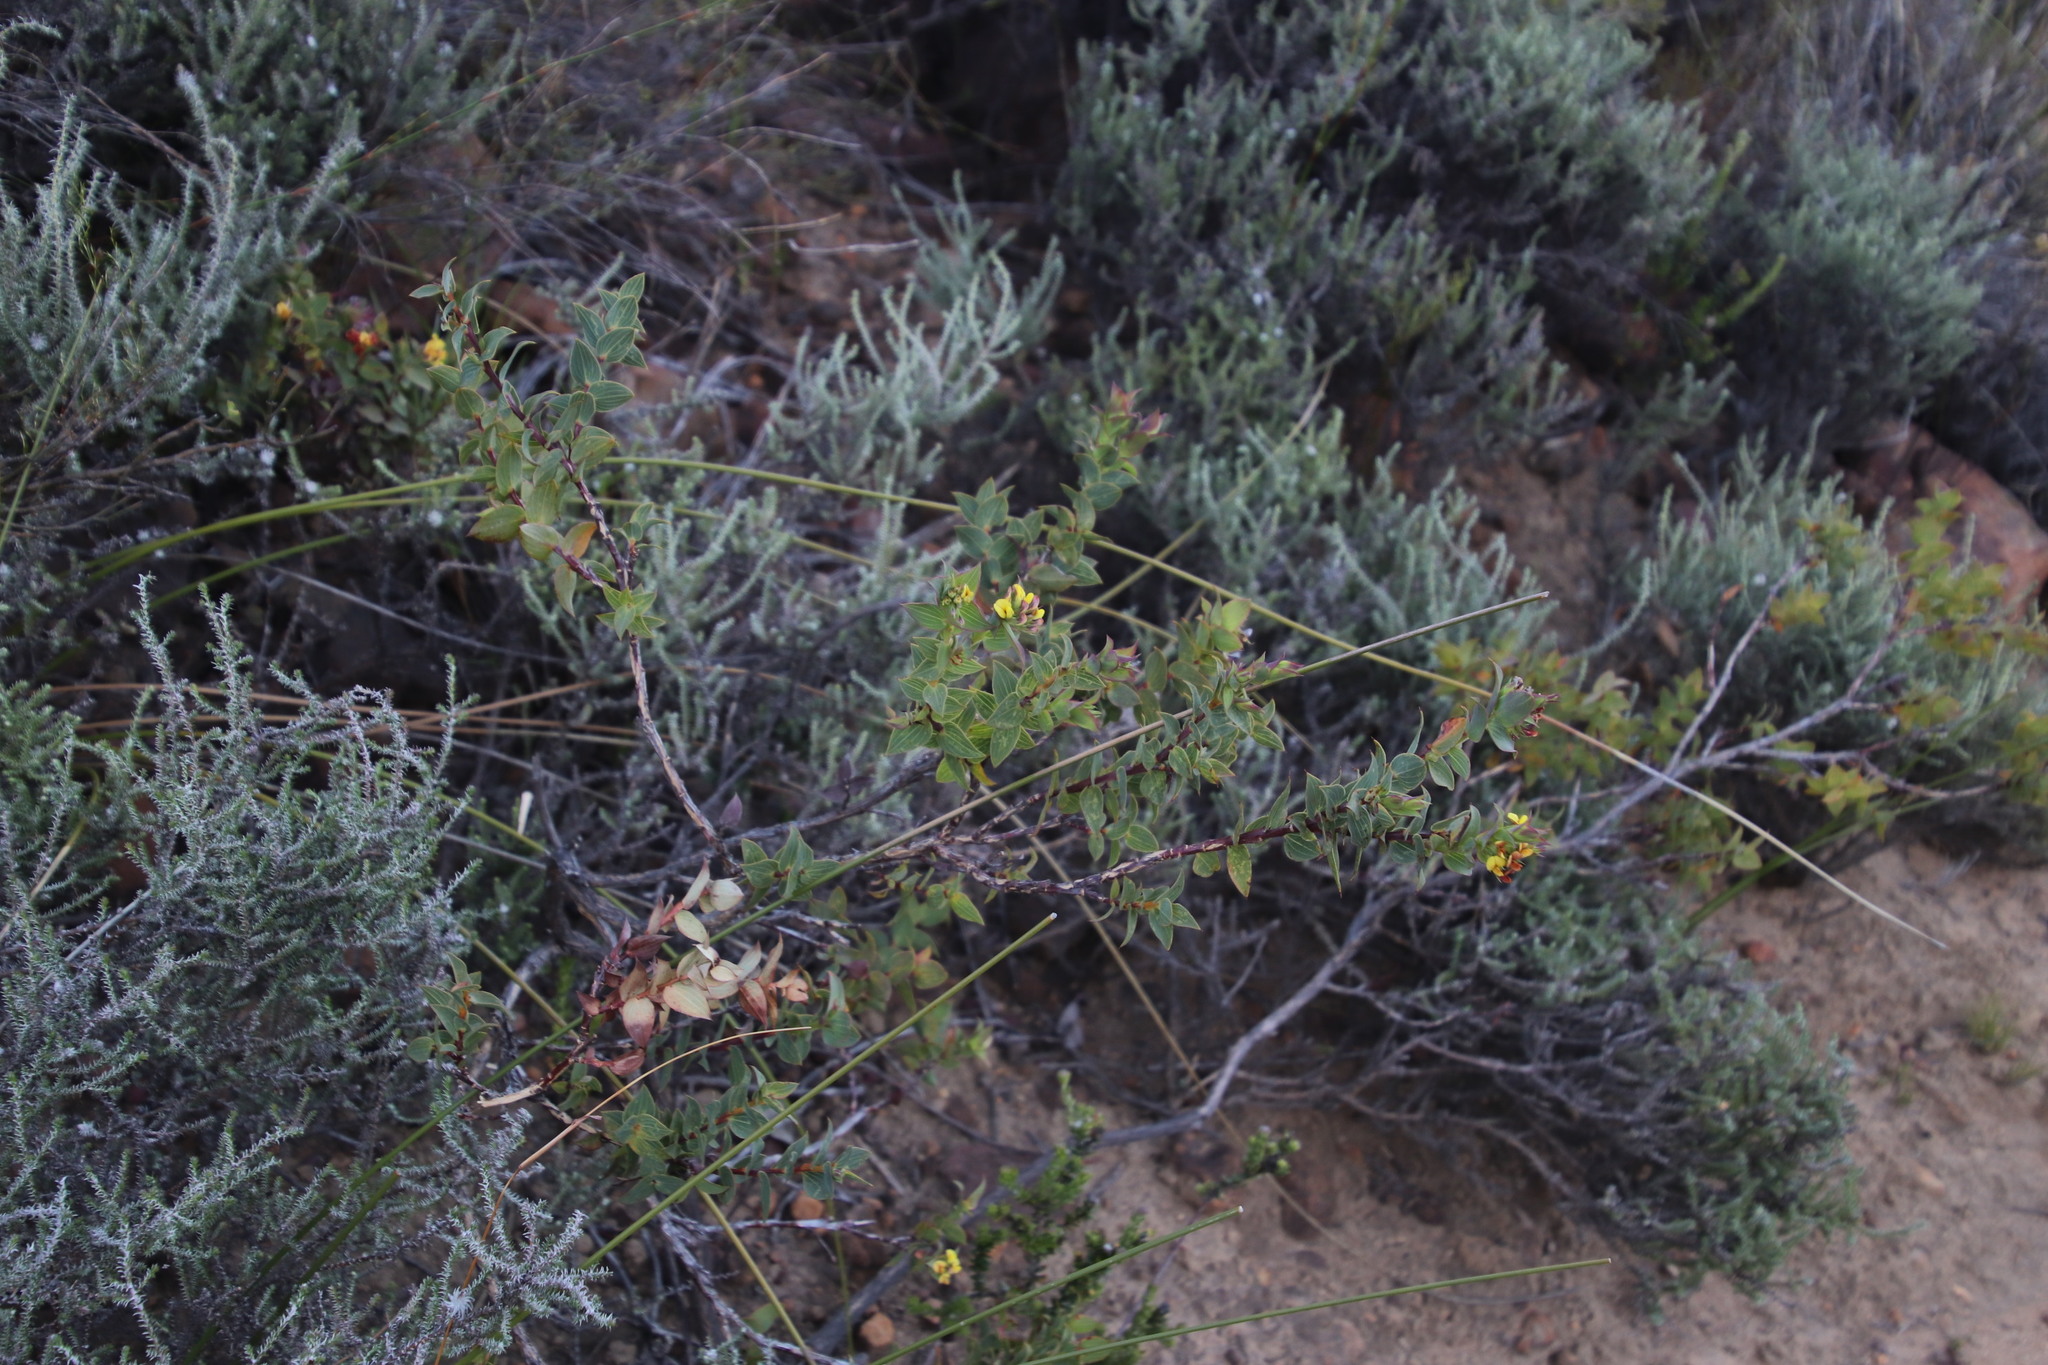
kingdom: Plantae
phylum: Tracheophyta
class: Magnoliopsida
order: Fabales
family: Fabaceae
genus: Aspalathus
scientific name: Aspalathus crenata
